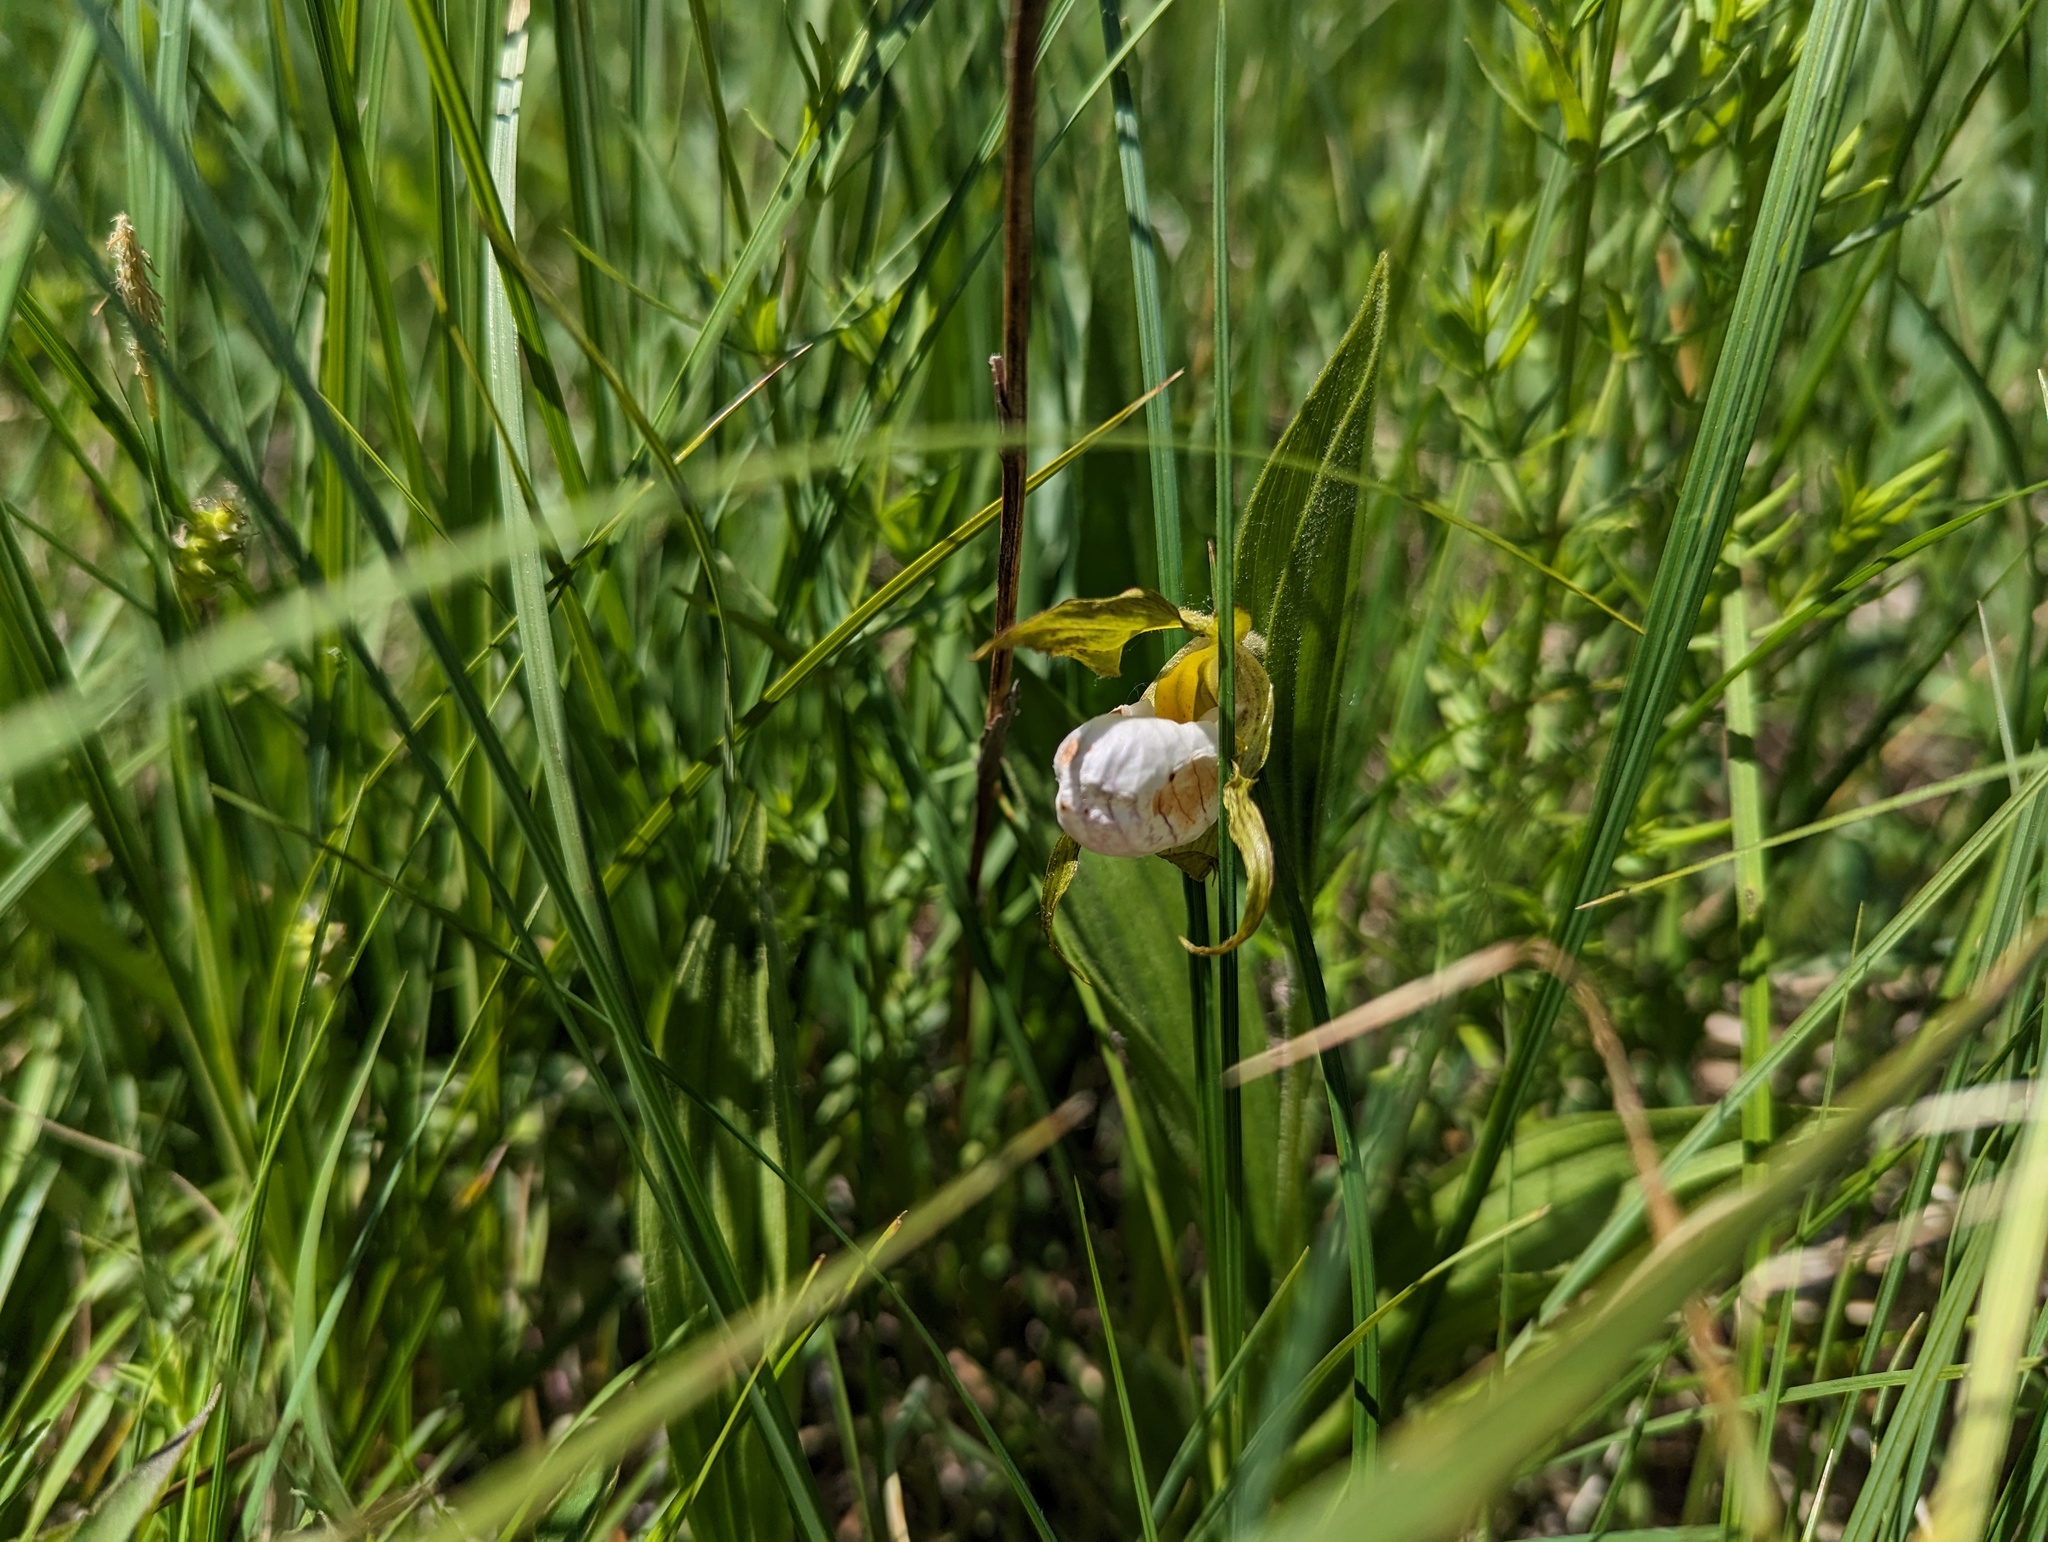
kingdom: Plantae
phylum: Tracheophyta
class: Liliopsida
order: Asparagales
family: Orchidaceae
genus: Cypripedium
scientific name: Cypripedium candidum
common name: White lady's-slipper
